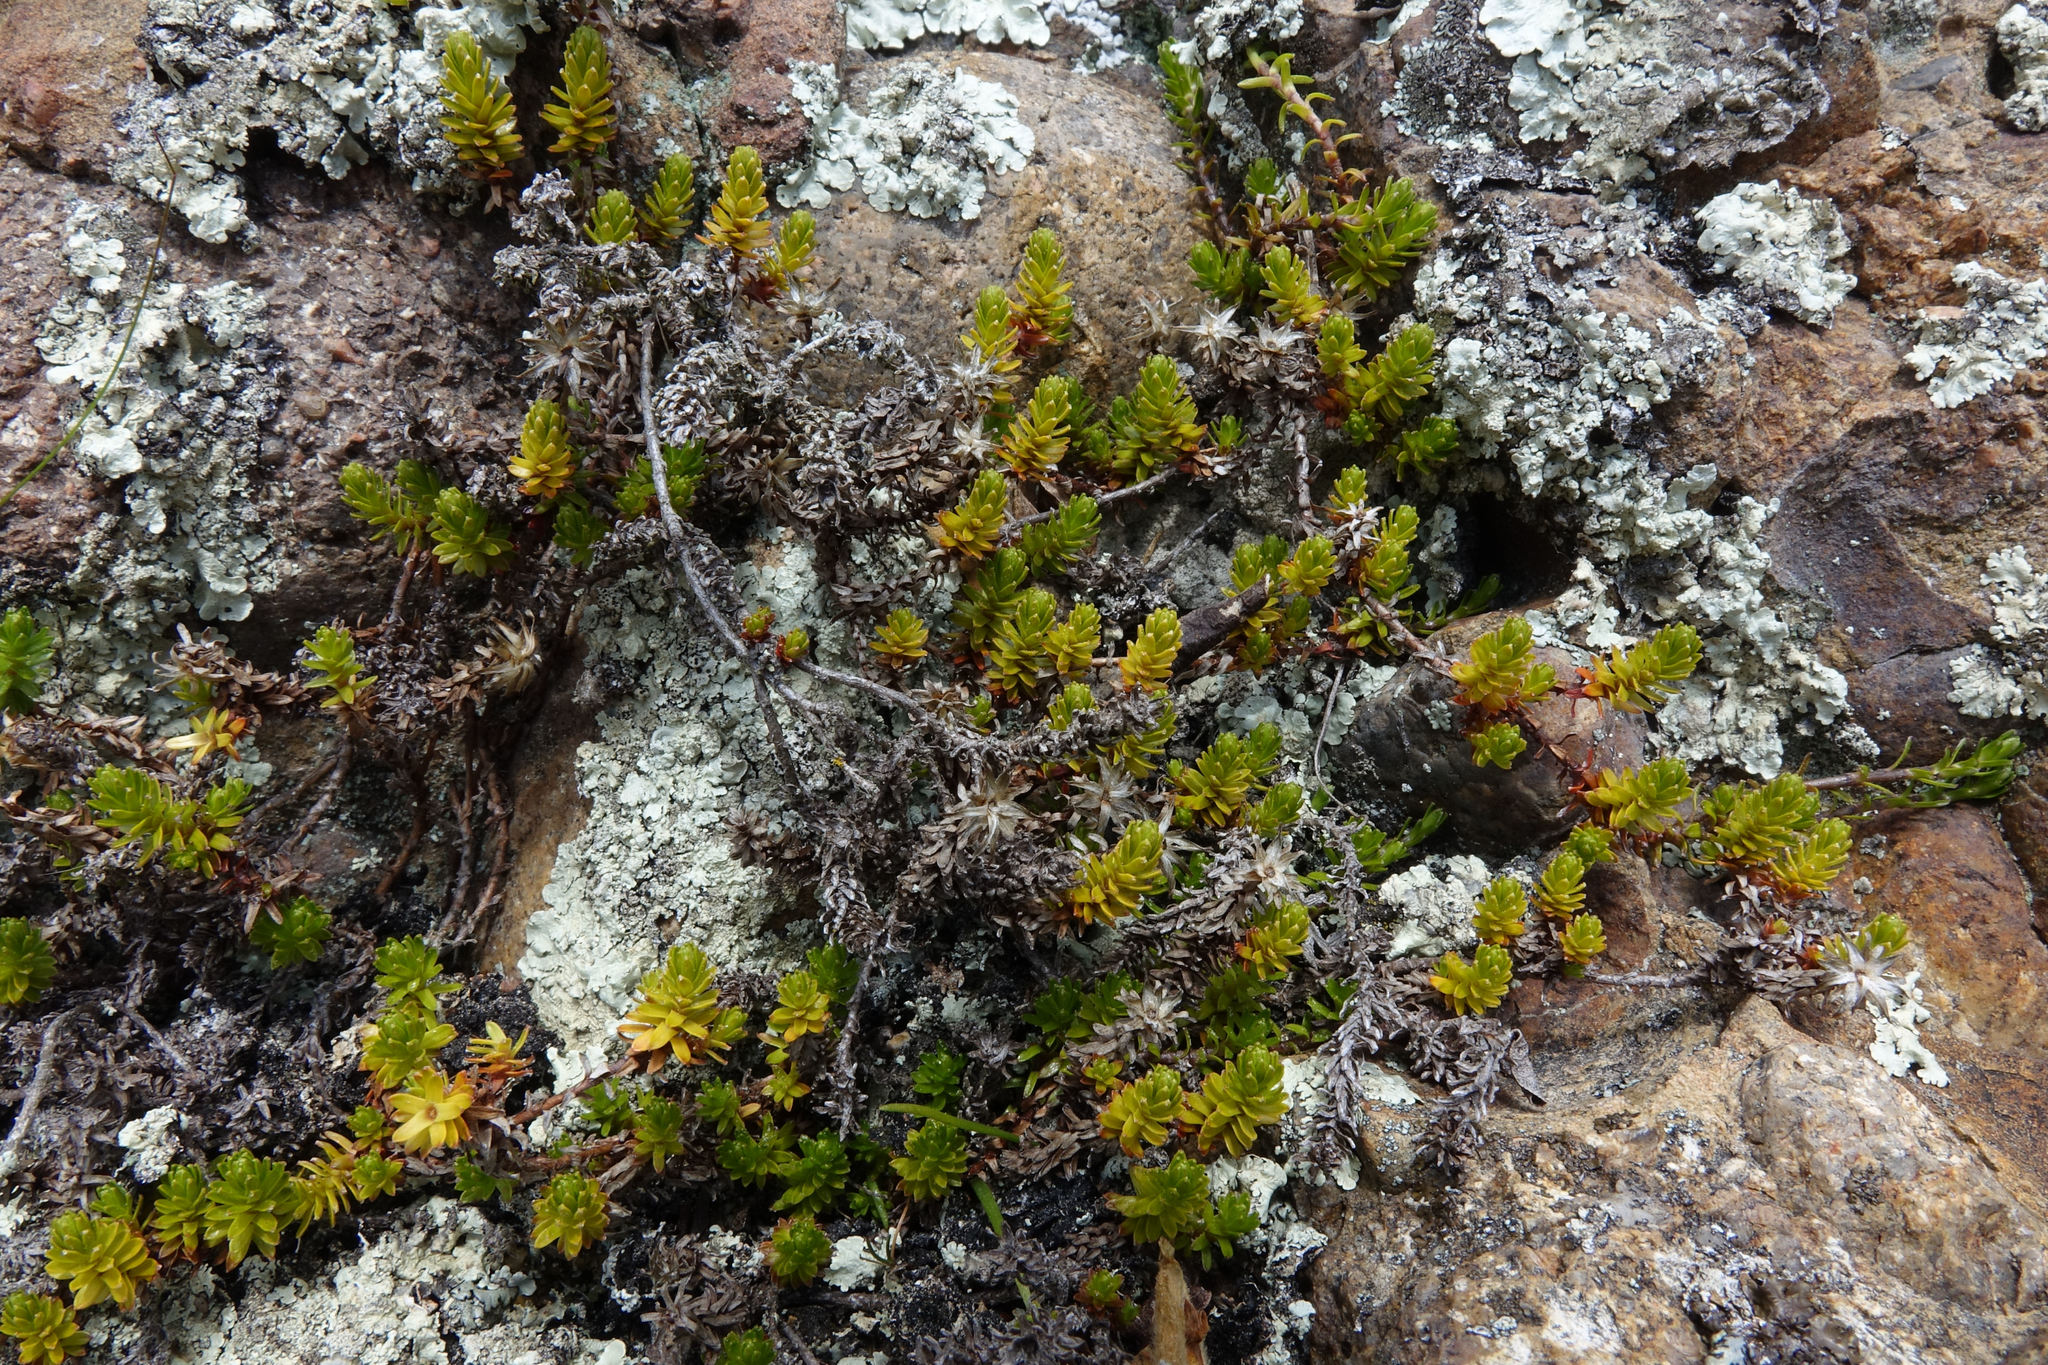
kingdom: Plantae
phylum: Tracheophyta
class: Magnoliopsida
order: Asterales
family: Asteraceae
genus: Raoulia
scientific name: Raoulia glabra
